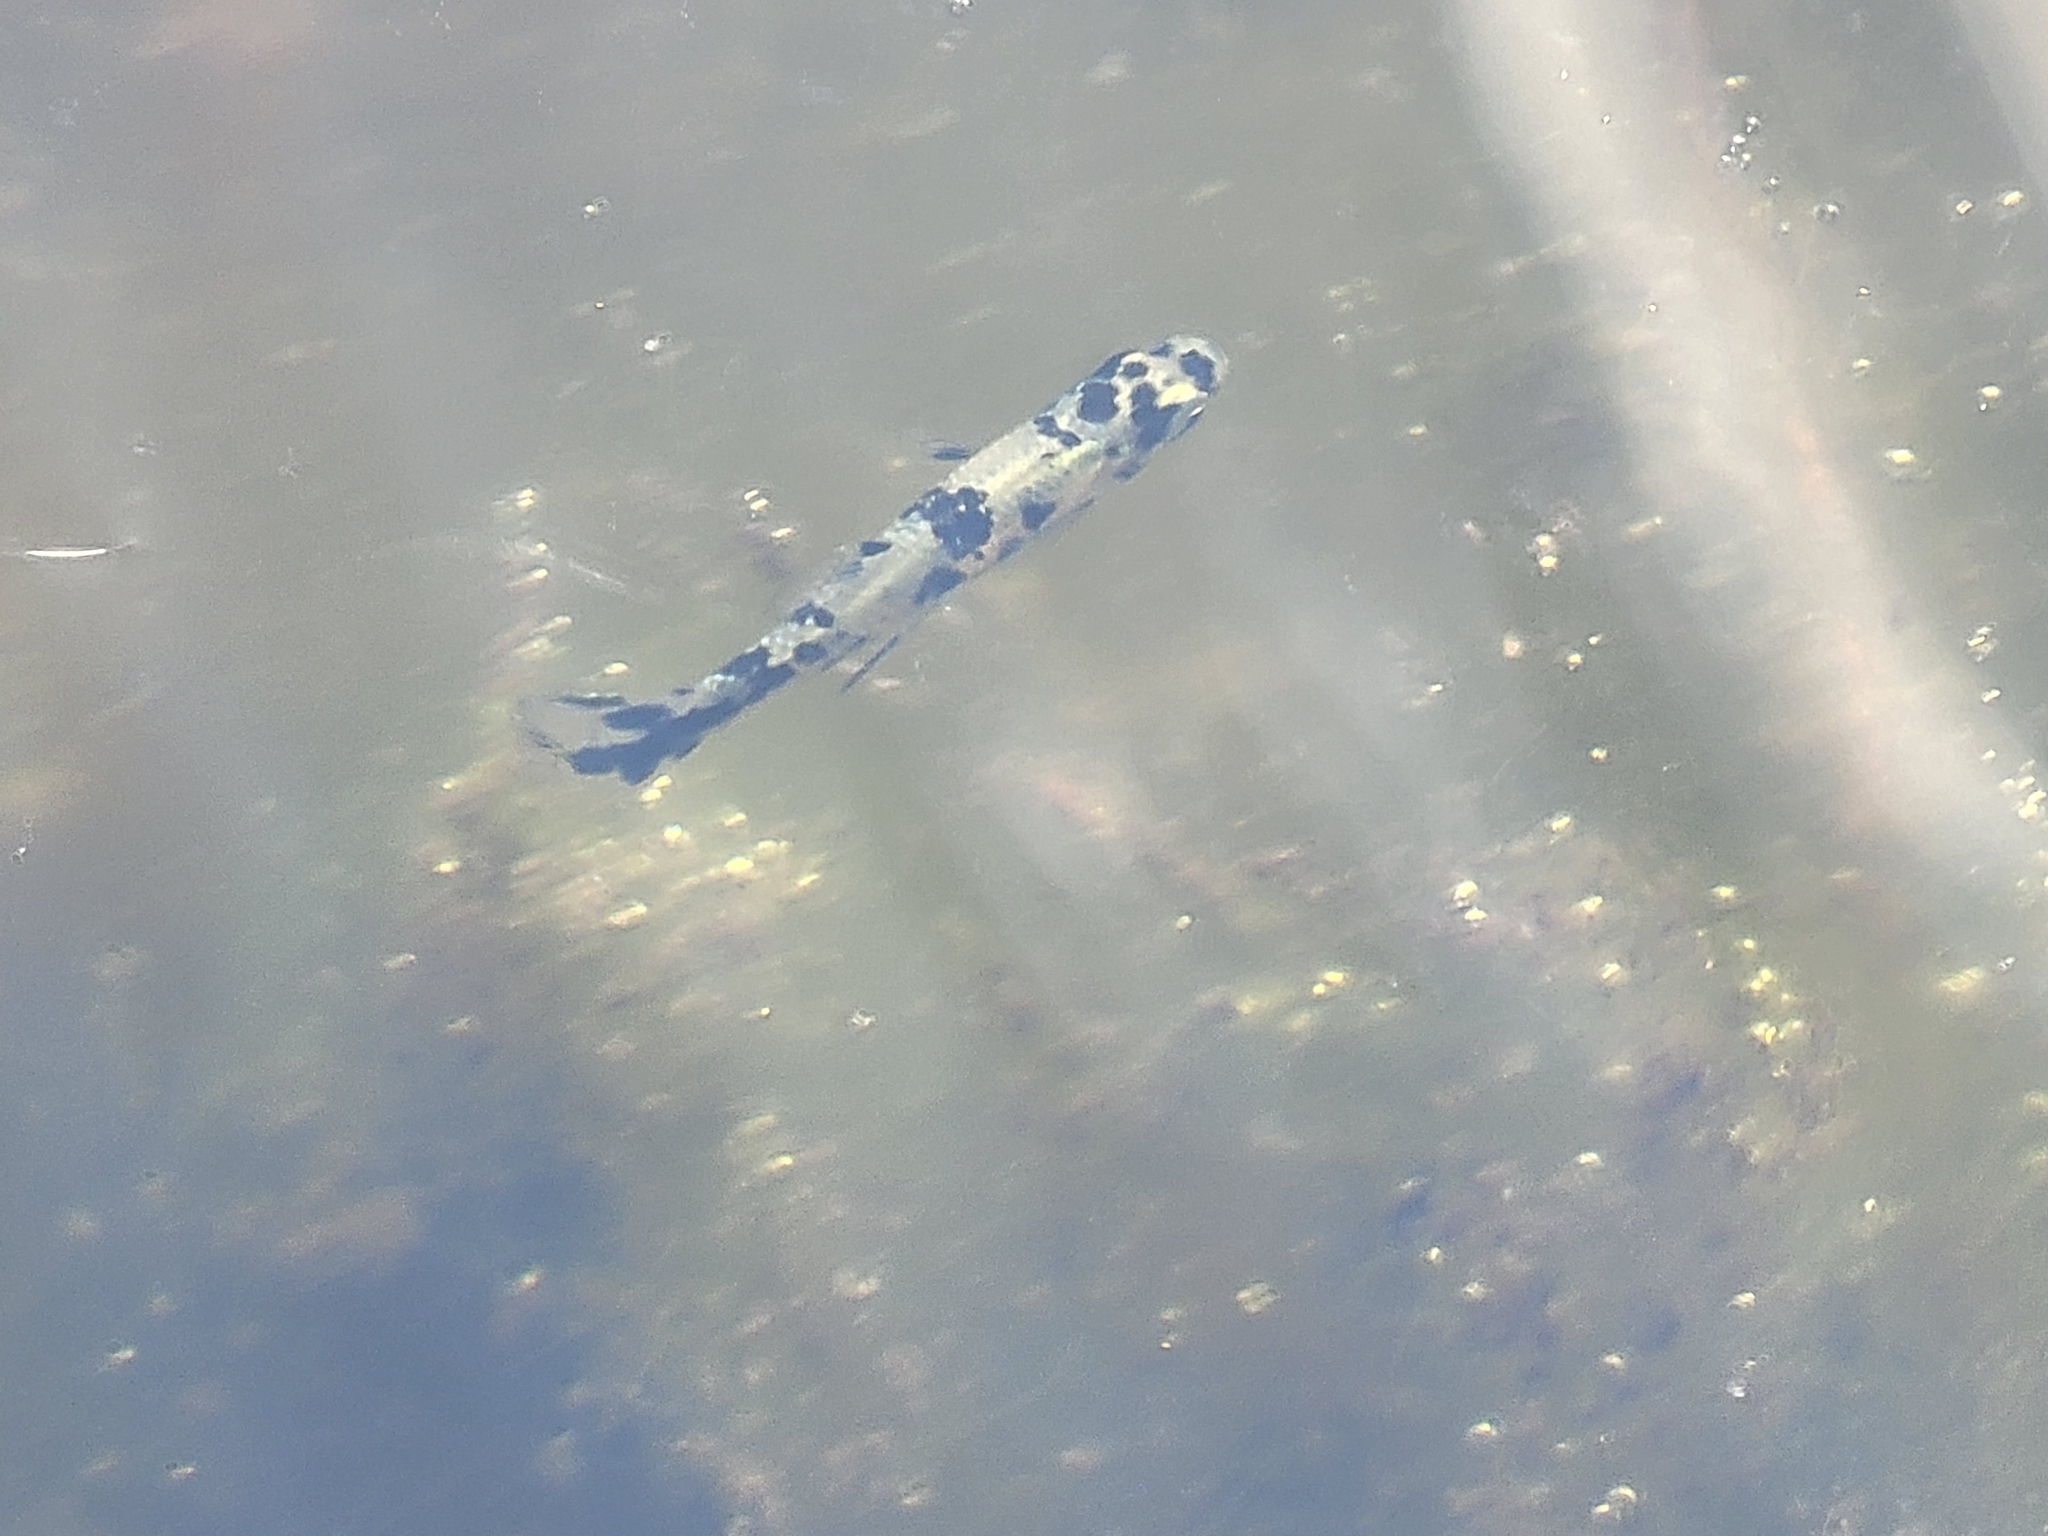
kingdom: Animalia
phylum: Chordata
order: Cyprinodontiformes
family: Poeciliidae
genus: Gambusia
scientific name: Gambusia holbrooki
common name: Eastern mosquitofish
